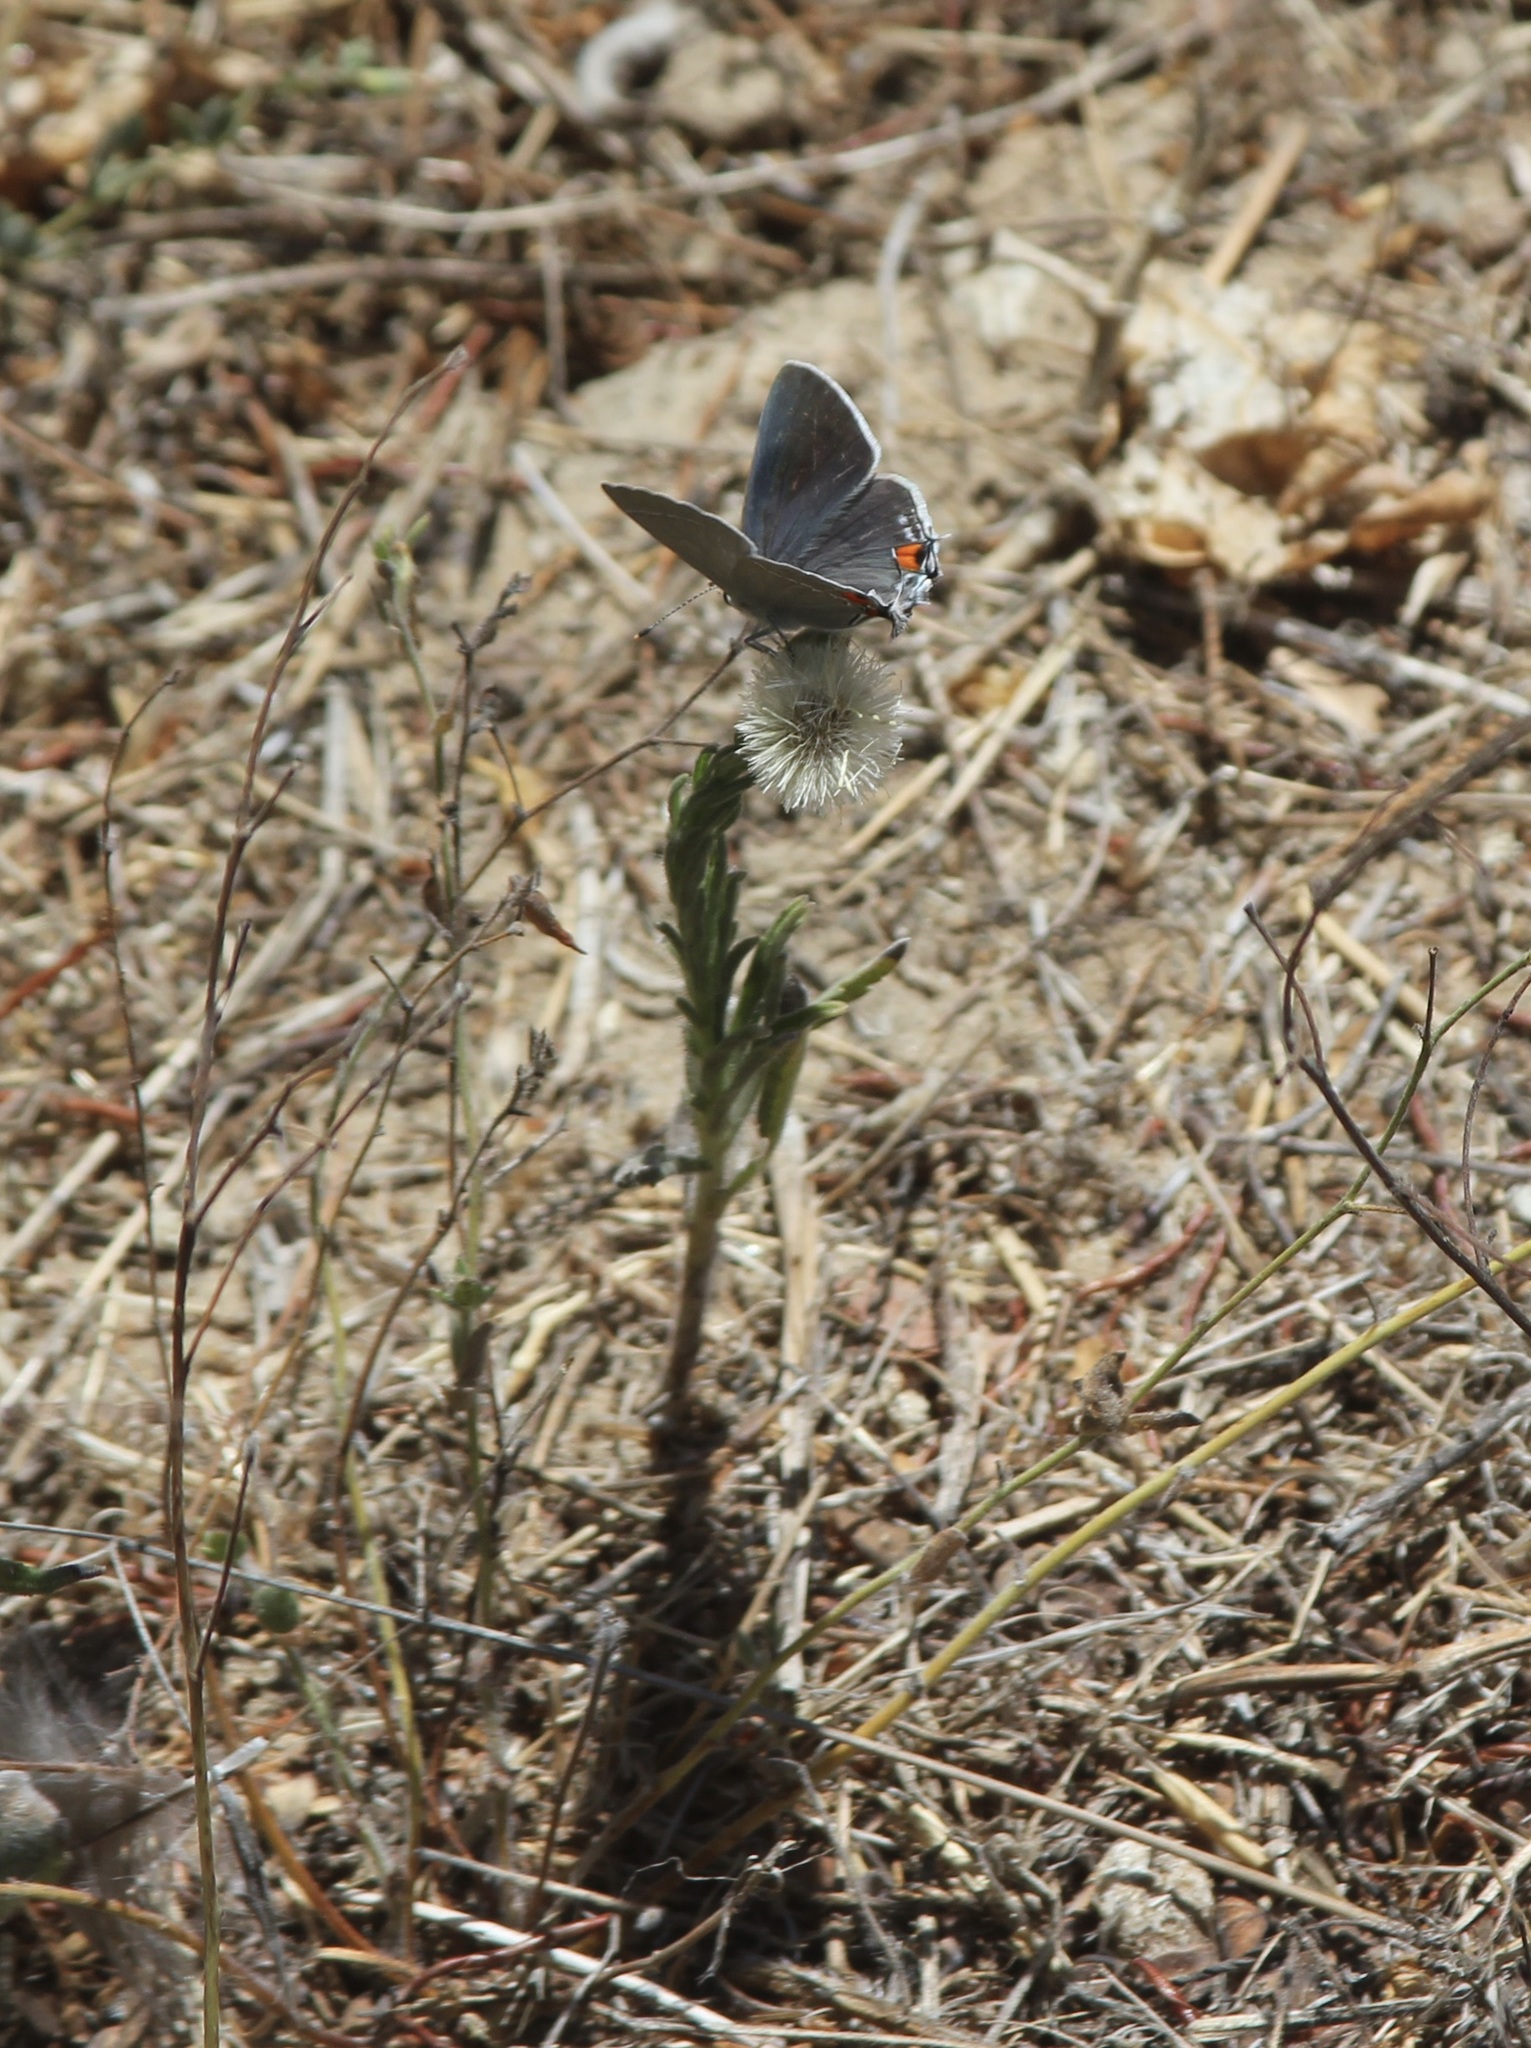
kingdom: Animalia
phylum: Arthropoda
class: Insecta
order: Lepidoptera
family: Lycaenidae
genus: Strymon
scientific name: Strymon melinus
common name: Gray hairstreak
